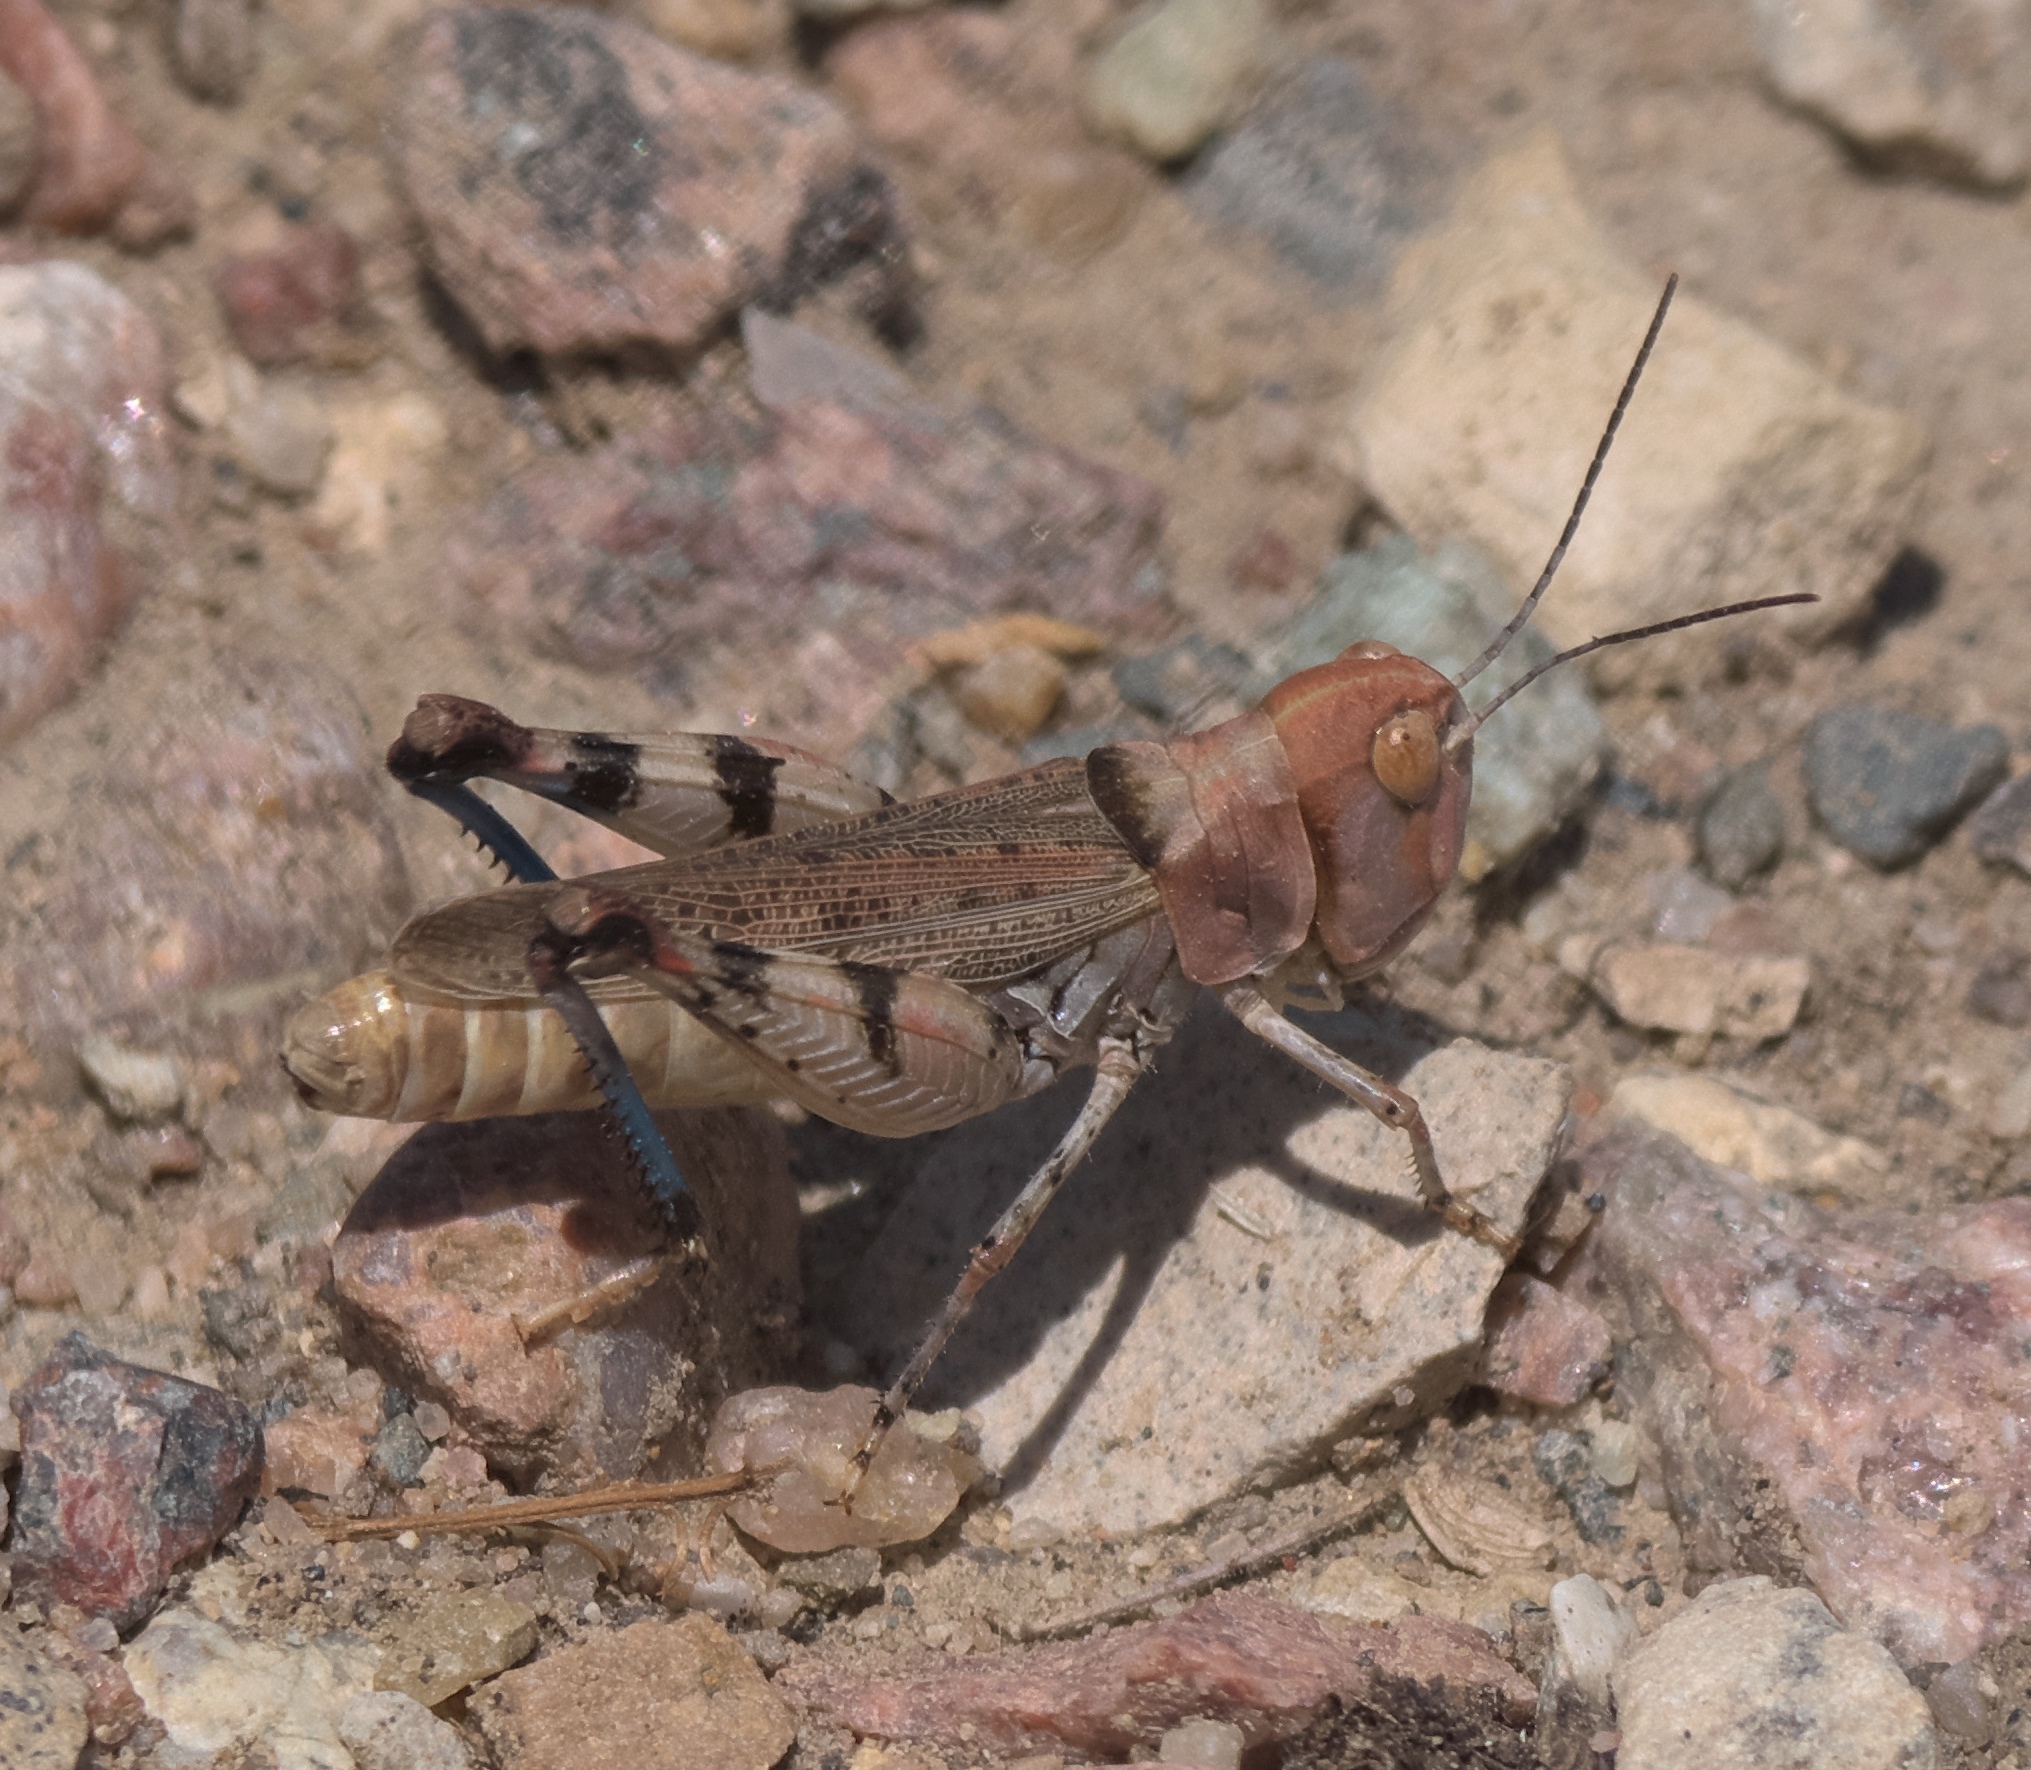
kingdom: Animalia
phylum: Arthropoda
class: Insecta
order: Orthoptera
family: Acrididae
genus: Aulocara
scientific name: Aulocara elliotti
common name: Bigheaded grasshopper
